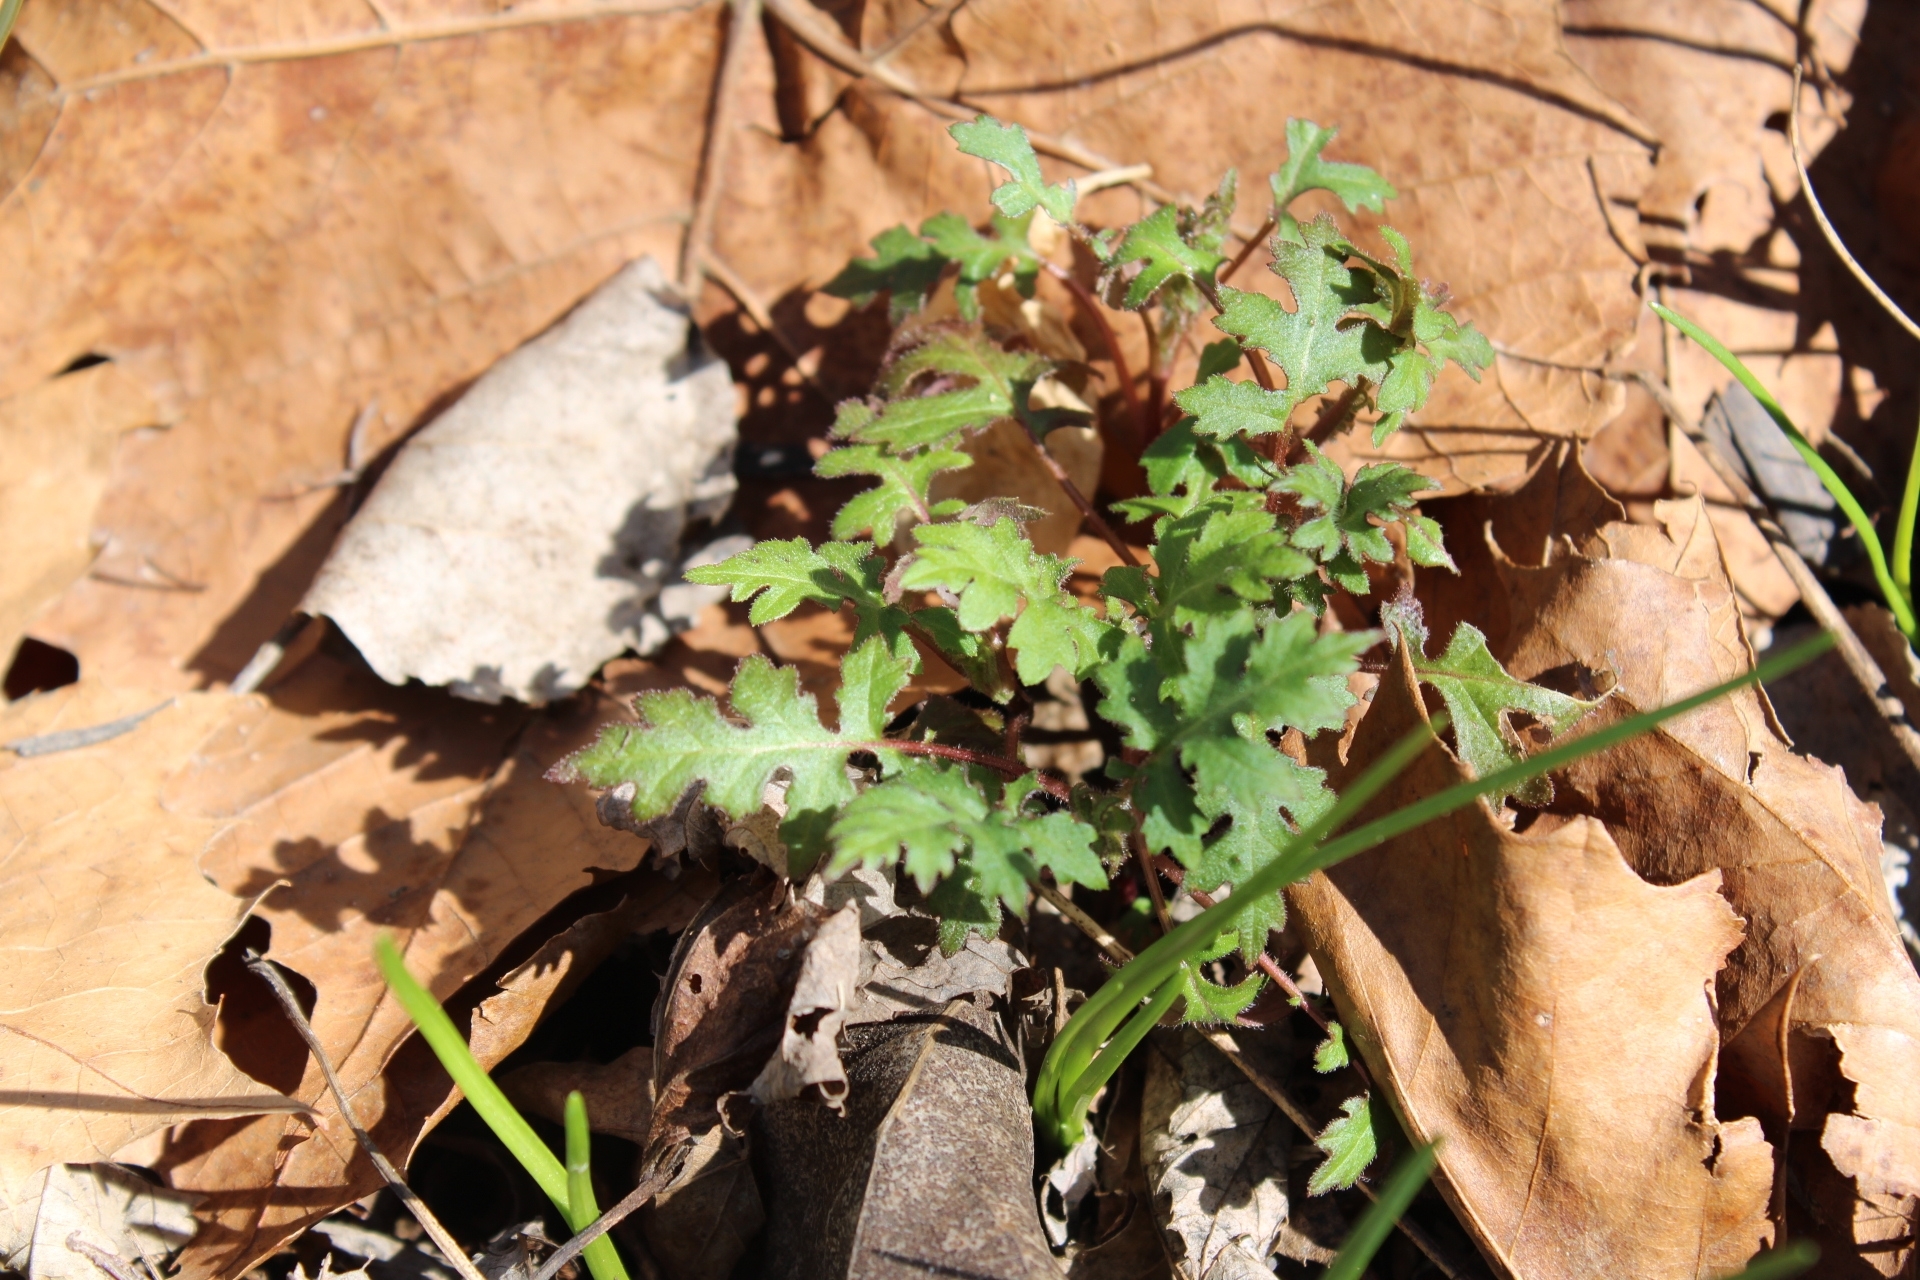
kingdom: Plantae
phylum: Tracheophyta
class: Magnoliopsida
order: Asterales
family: Asteraceae
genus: Polymnia
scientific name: Polymnia canadensis
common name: Pale-flowered leafcup
